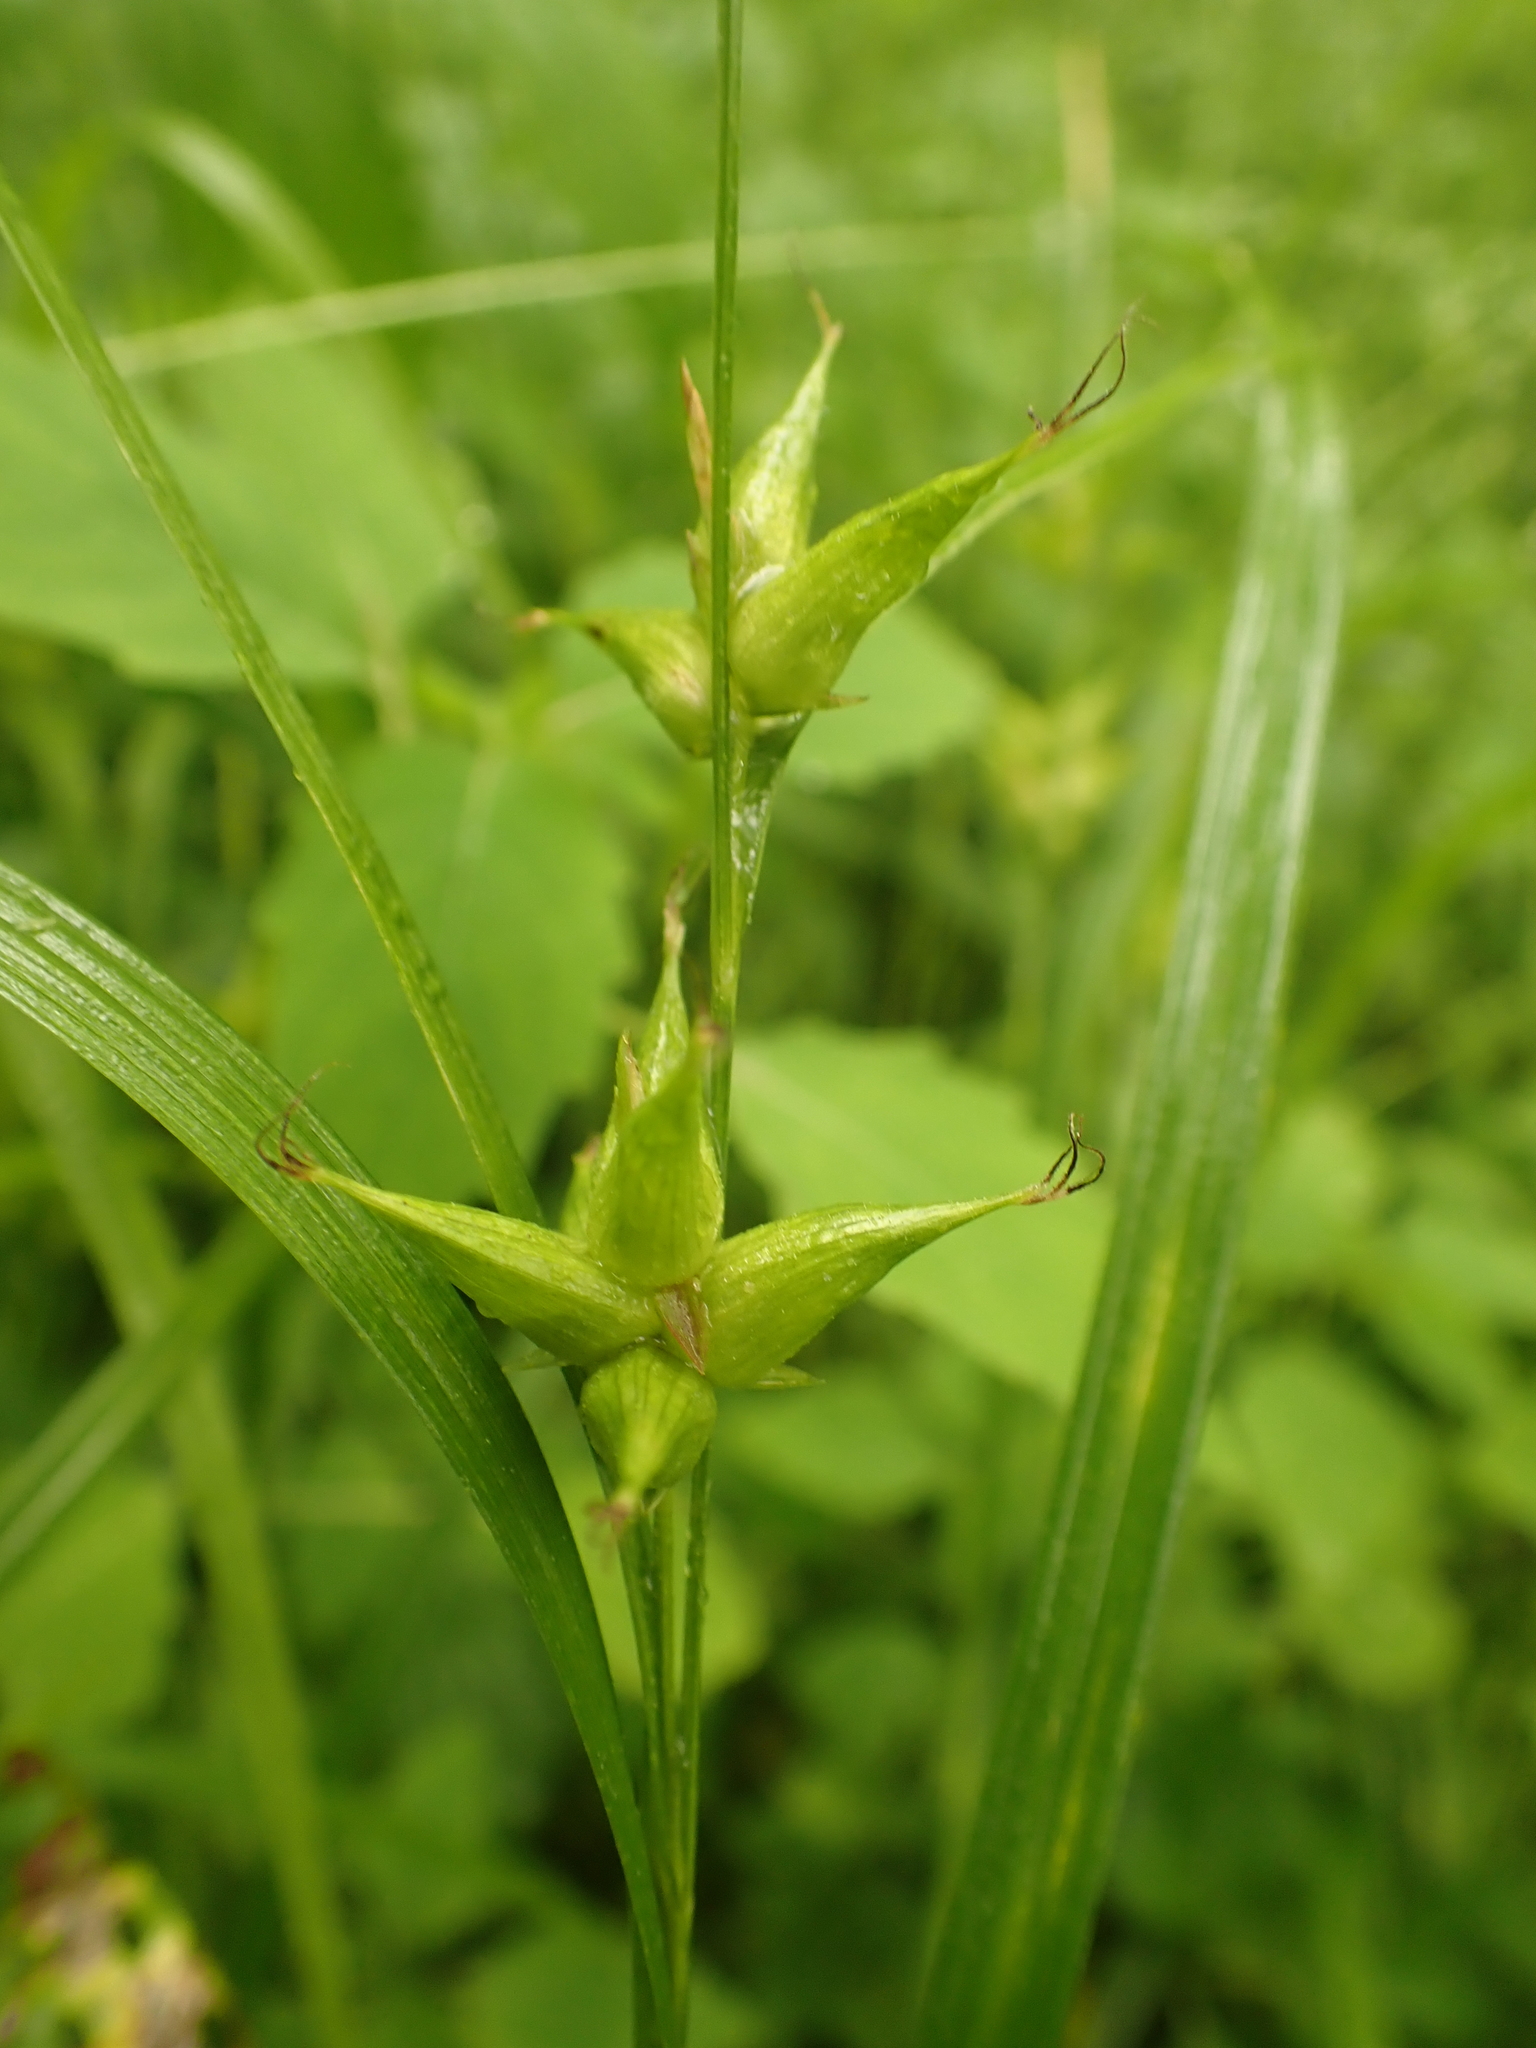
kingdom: Plantae
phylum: Tracheophyta
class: Liliopsida
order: Poales
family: Cyperaceae
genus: Carex
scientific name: Carex intumescens
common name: Greater bladder sedge
